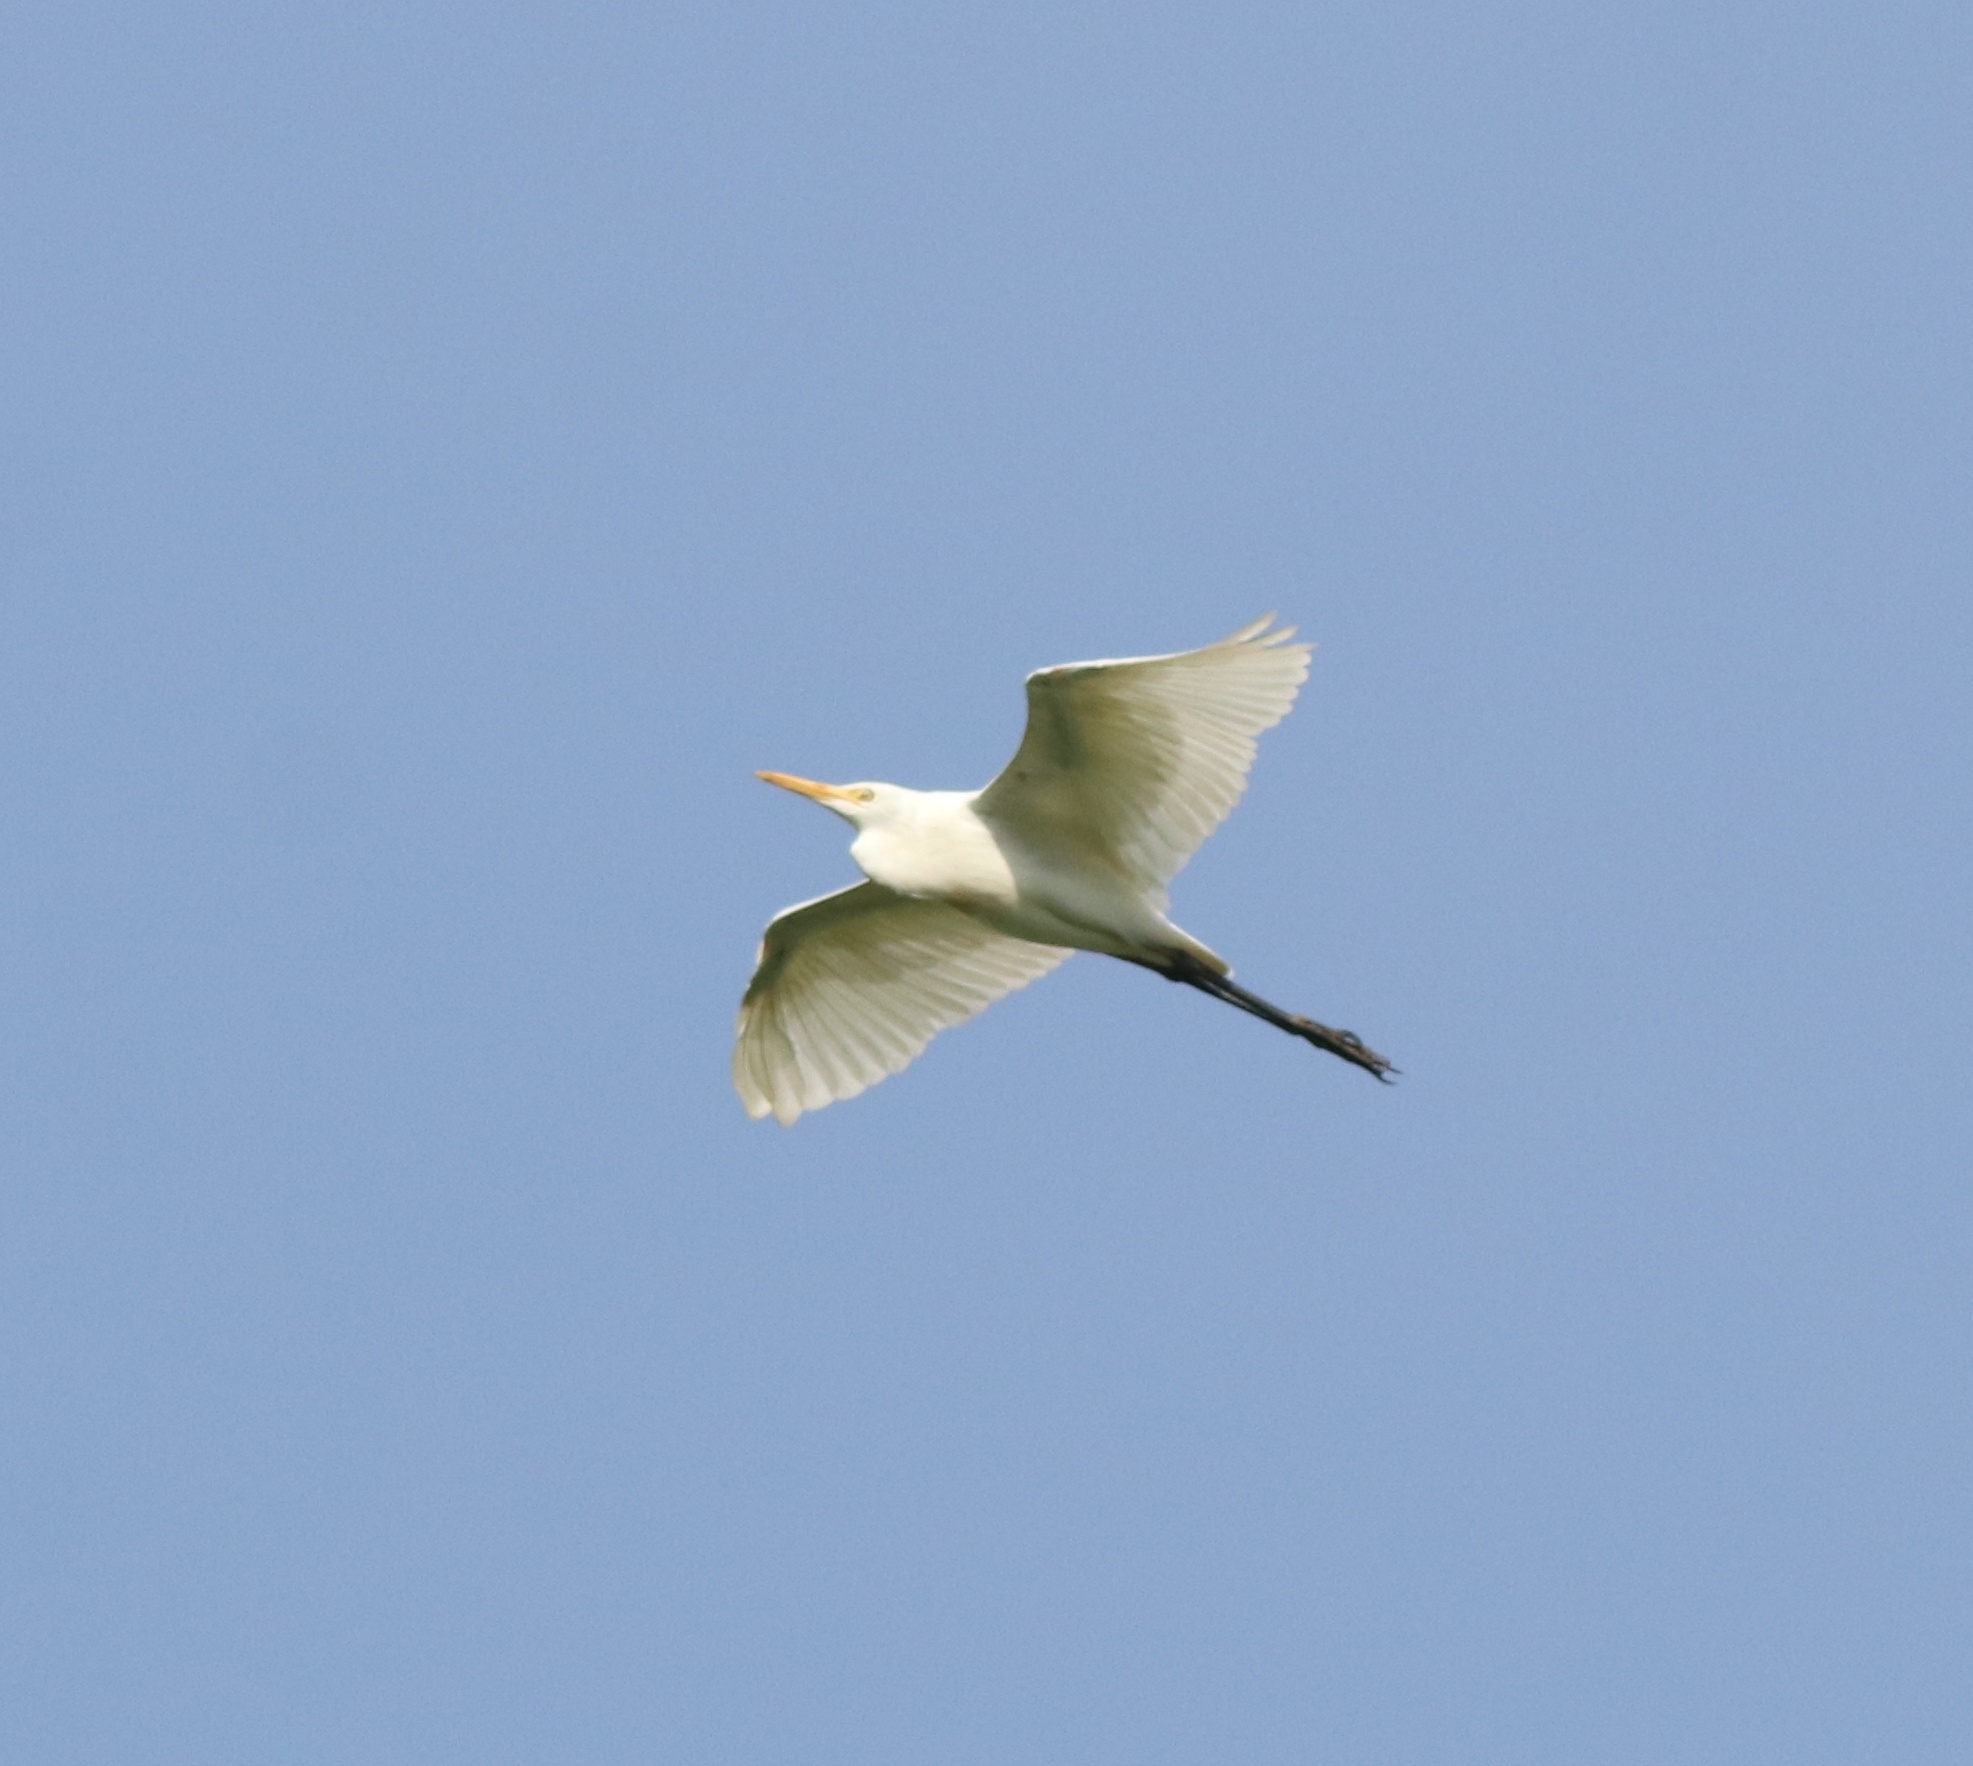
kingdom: Animalia
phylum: Chordata
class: Aves
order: Pelecaniformes
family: Ardeidae
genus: Bubulcus
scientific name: Bubulcus coromandus
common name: Eastern cattle egret
